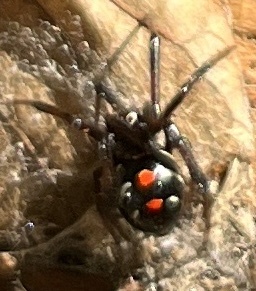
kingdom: Animalia
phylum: Arthropoda
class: Arachnida
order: Araneae
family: Theridiidae
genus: Latrodectus
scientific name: Latrodectus variolus
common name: Northern black widow
